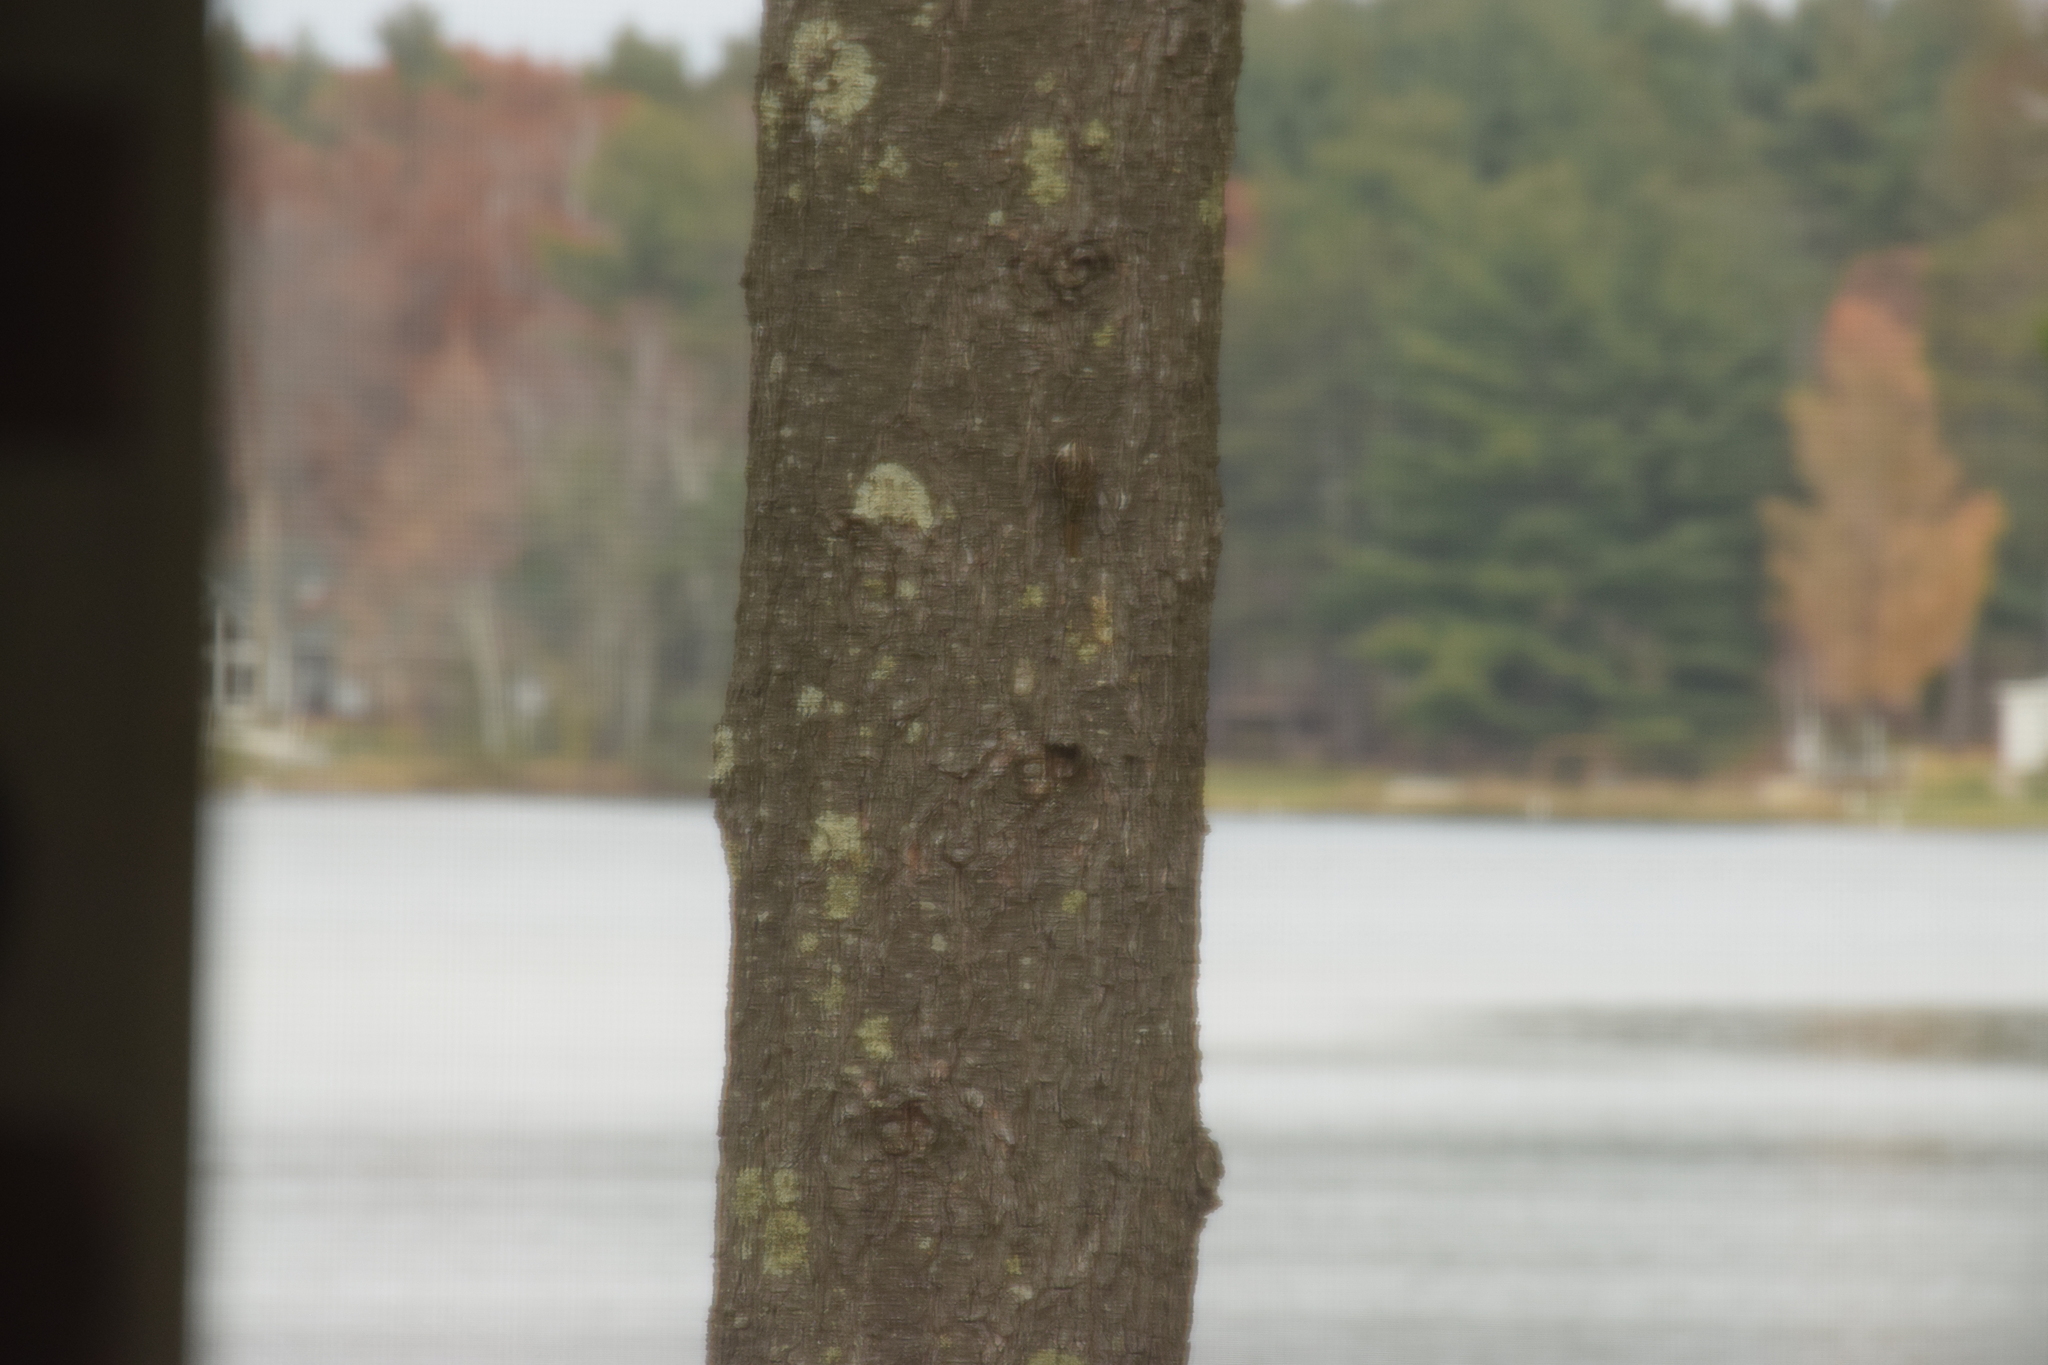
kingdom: Animalia
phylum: Chordata
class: Aves
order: Passeriformes
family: Certhiidae
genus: Certhia
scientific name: Certhia americana
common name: Brown creeper
